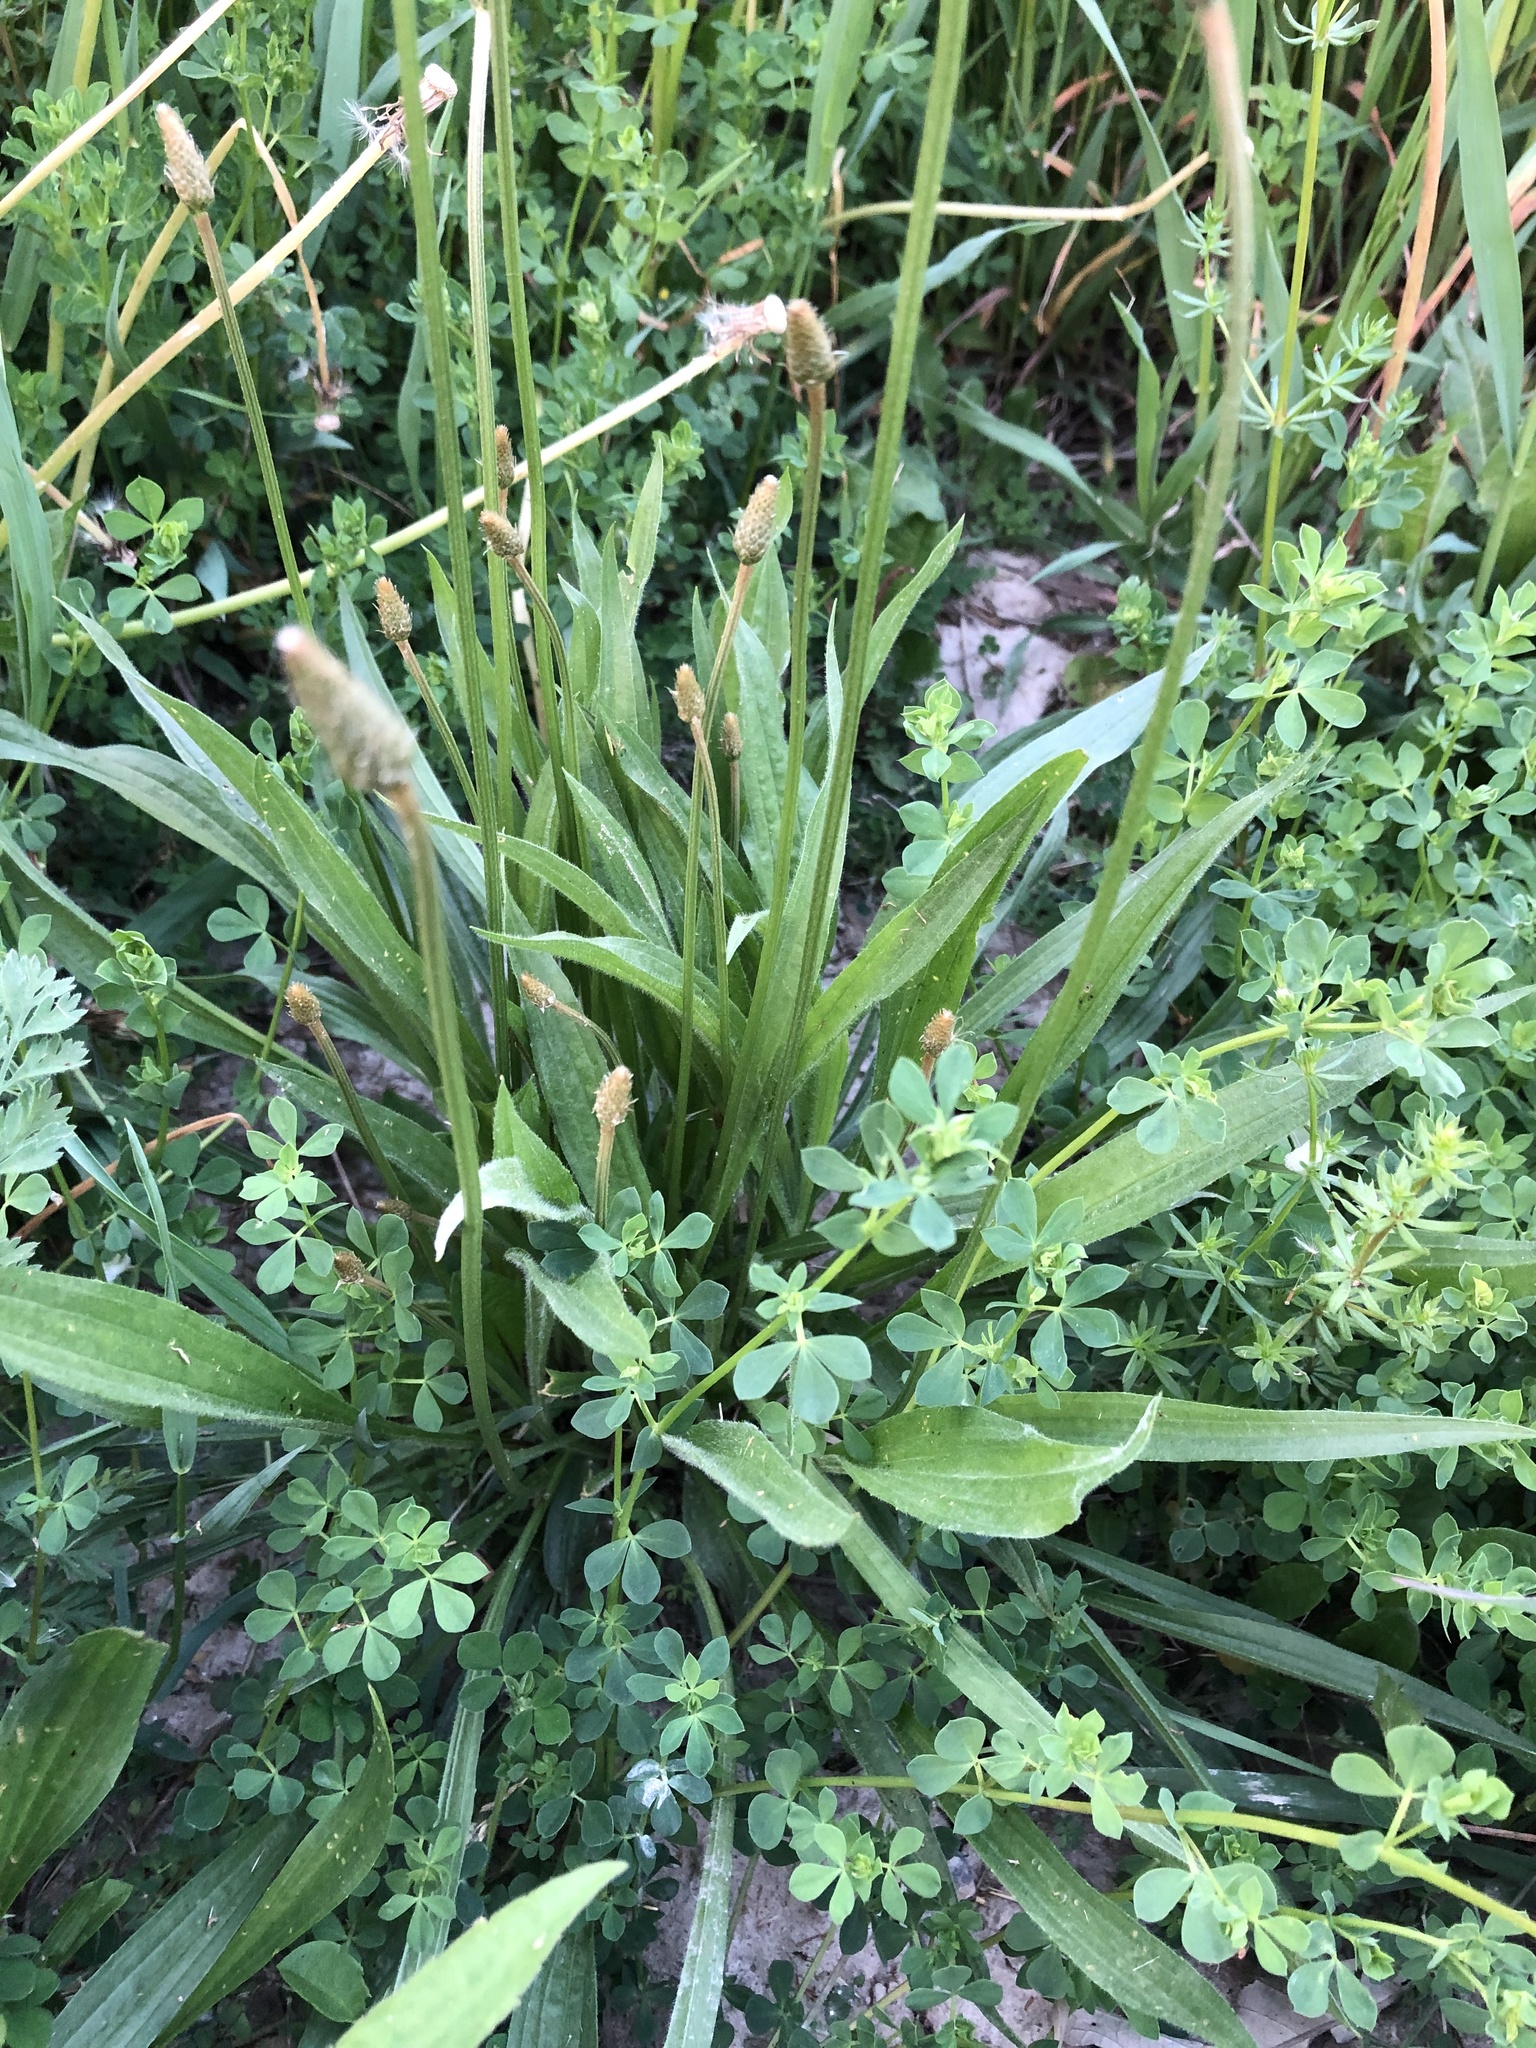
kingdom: Plantae
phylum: Tracheophyta
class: Magnoliopsida
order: Lamiales
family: Plantaginaceae
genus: Plantago
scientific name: Plantago lanceolata
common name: Ribwort plantain
